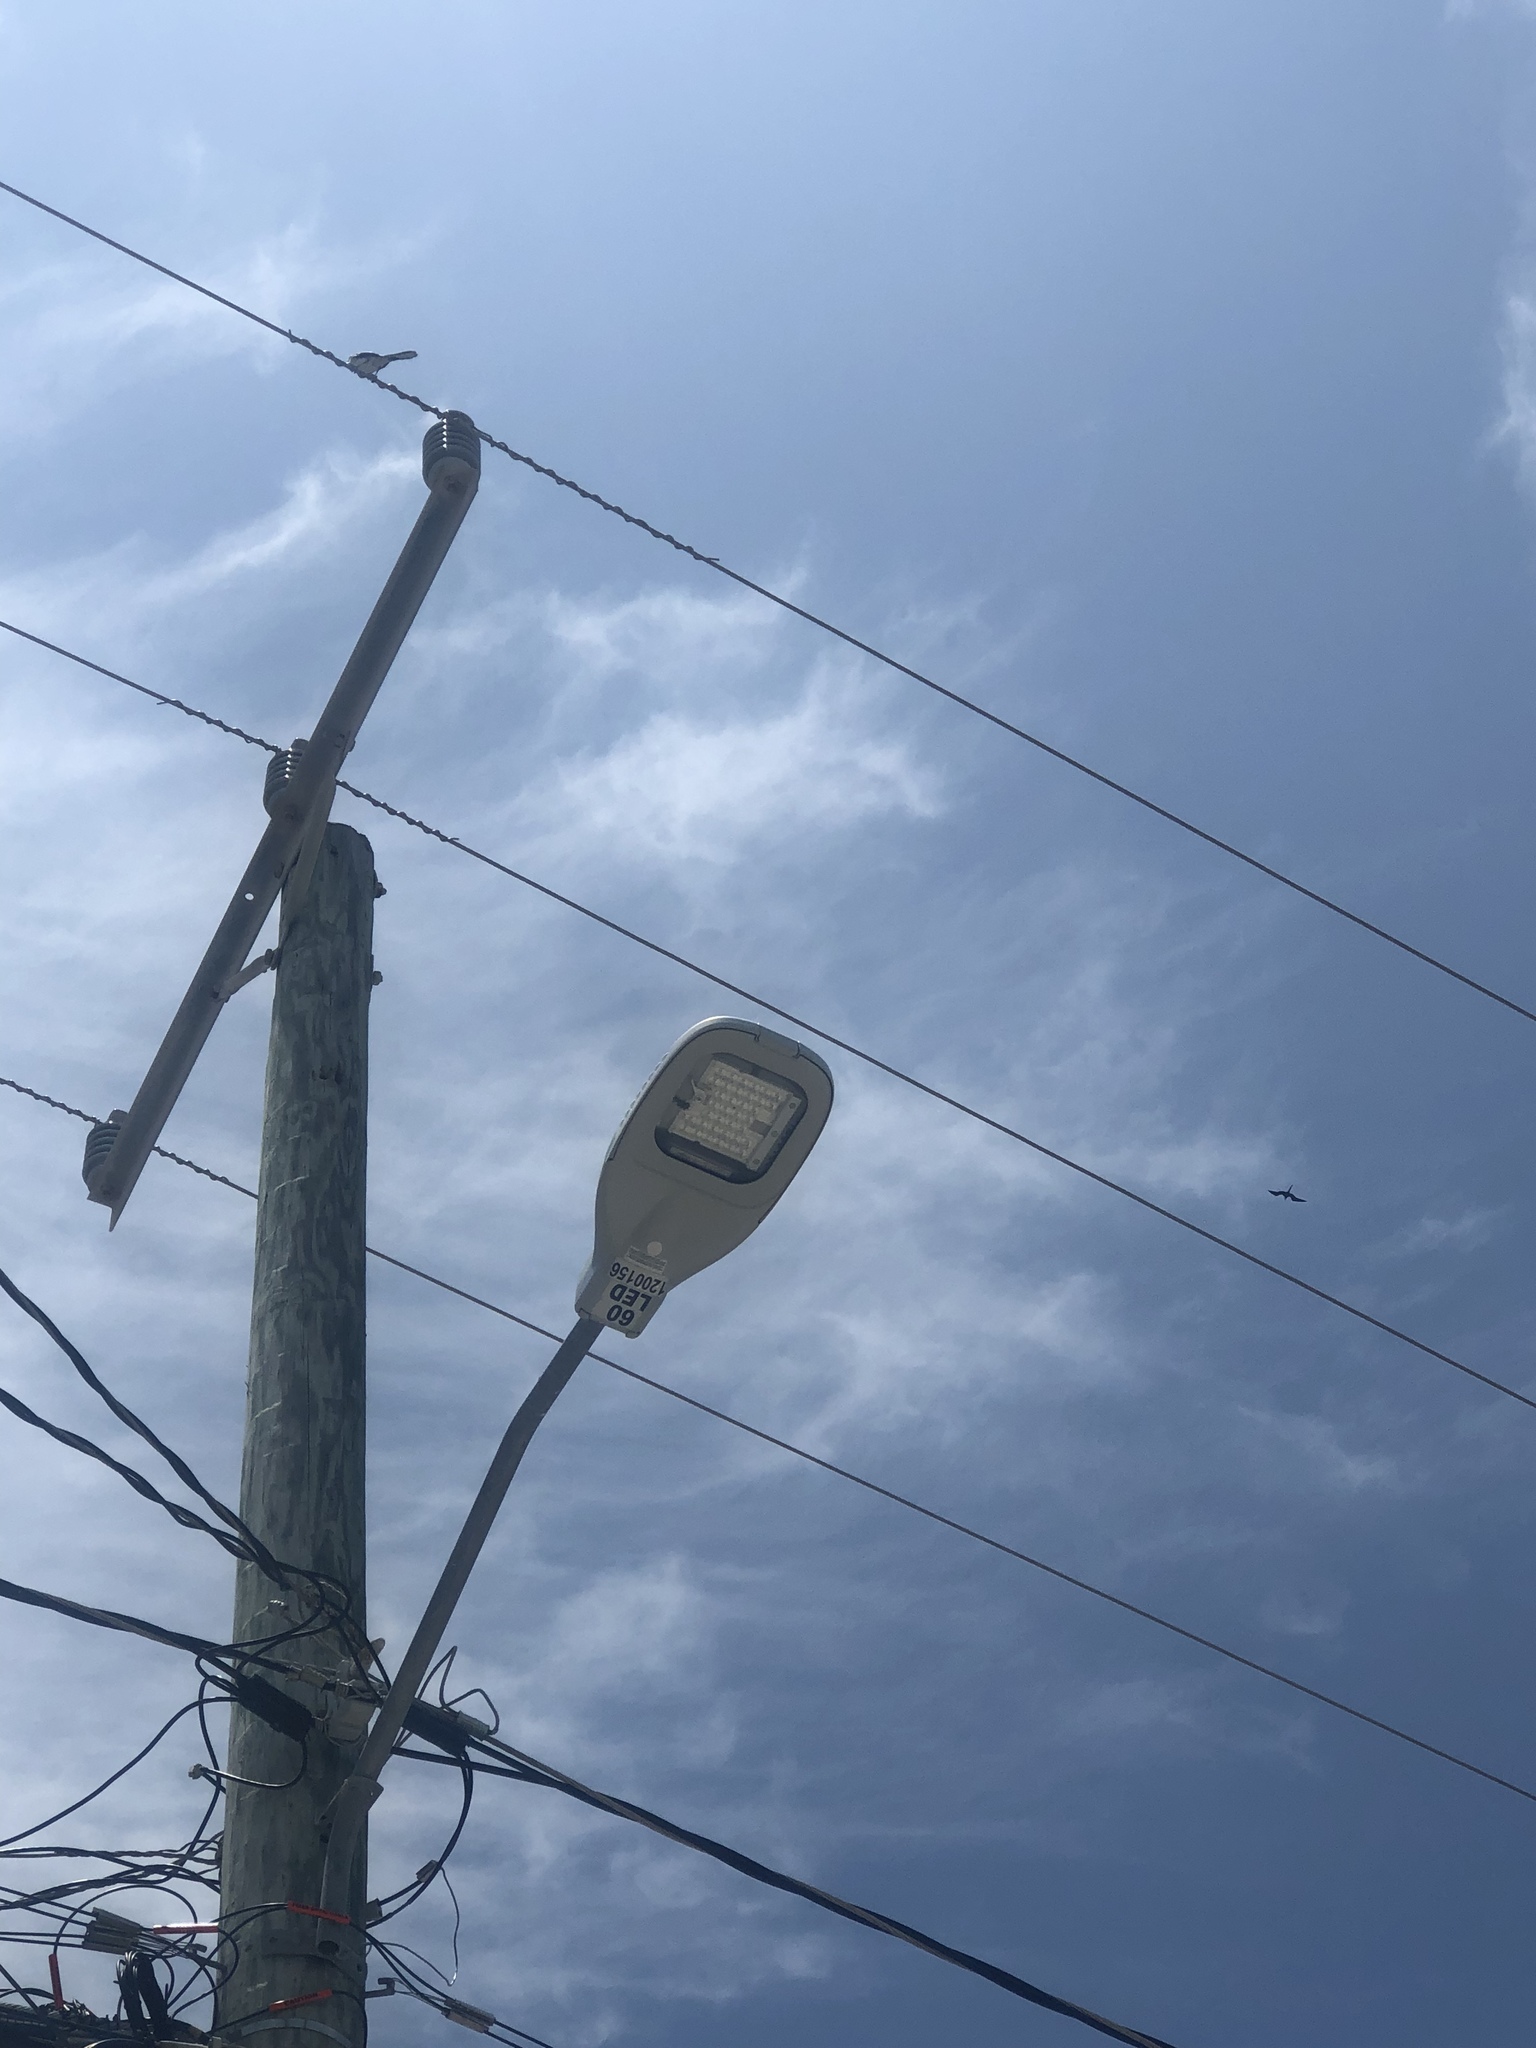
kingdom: Animalia
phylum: Chordata
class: Aves
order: Suliformes
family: Fregatidae
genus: Fregata
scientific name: Fregata magnificens
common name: Magnificent frigatebird
